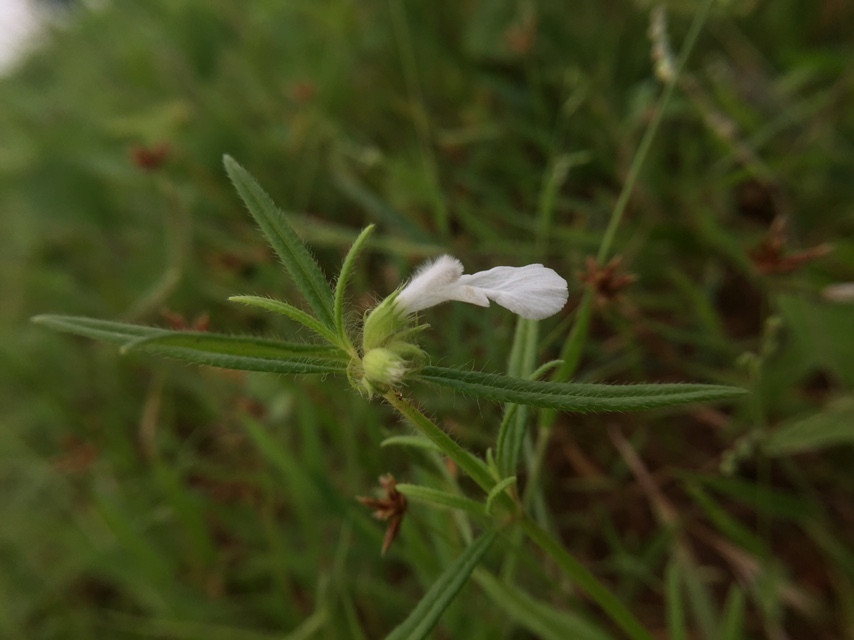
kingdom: Plantae
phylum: Tracheophyta
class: Magnoliopsida
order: Lamiales
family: Lamiaceae
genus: Leucas
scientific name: Leucas stricta
